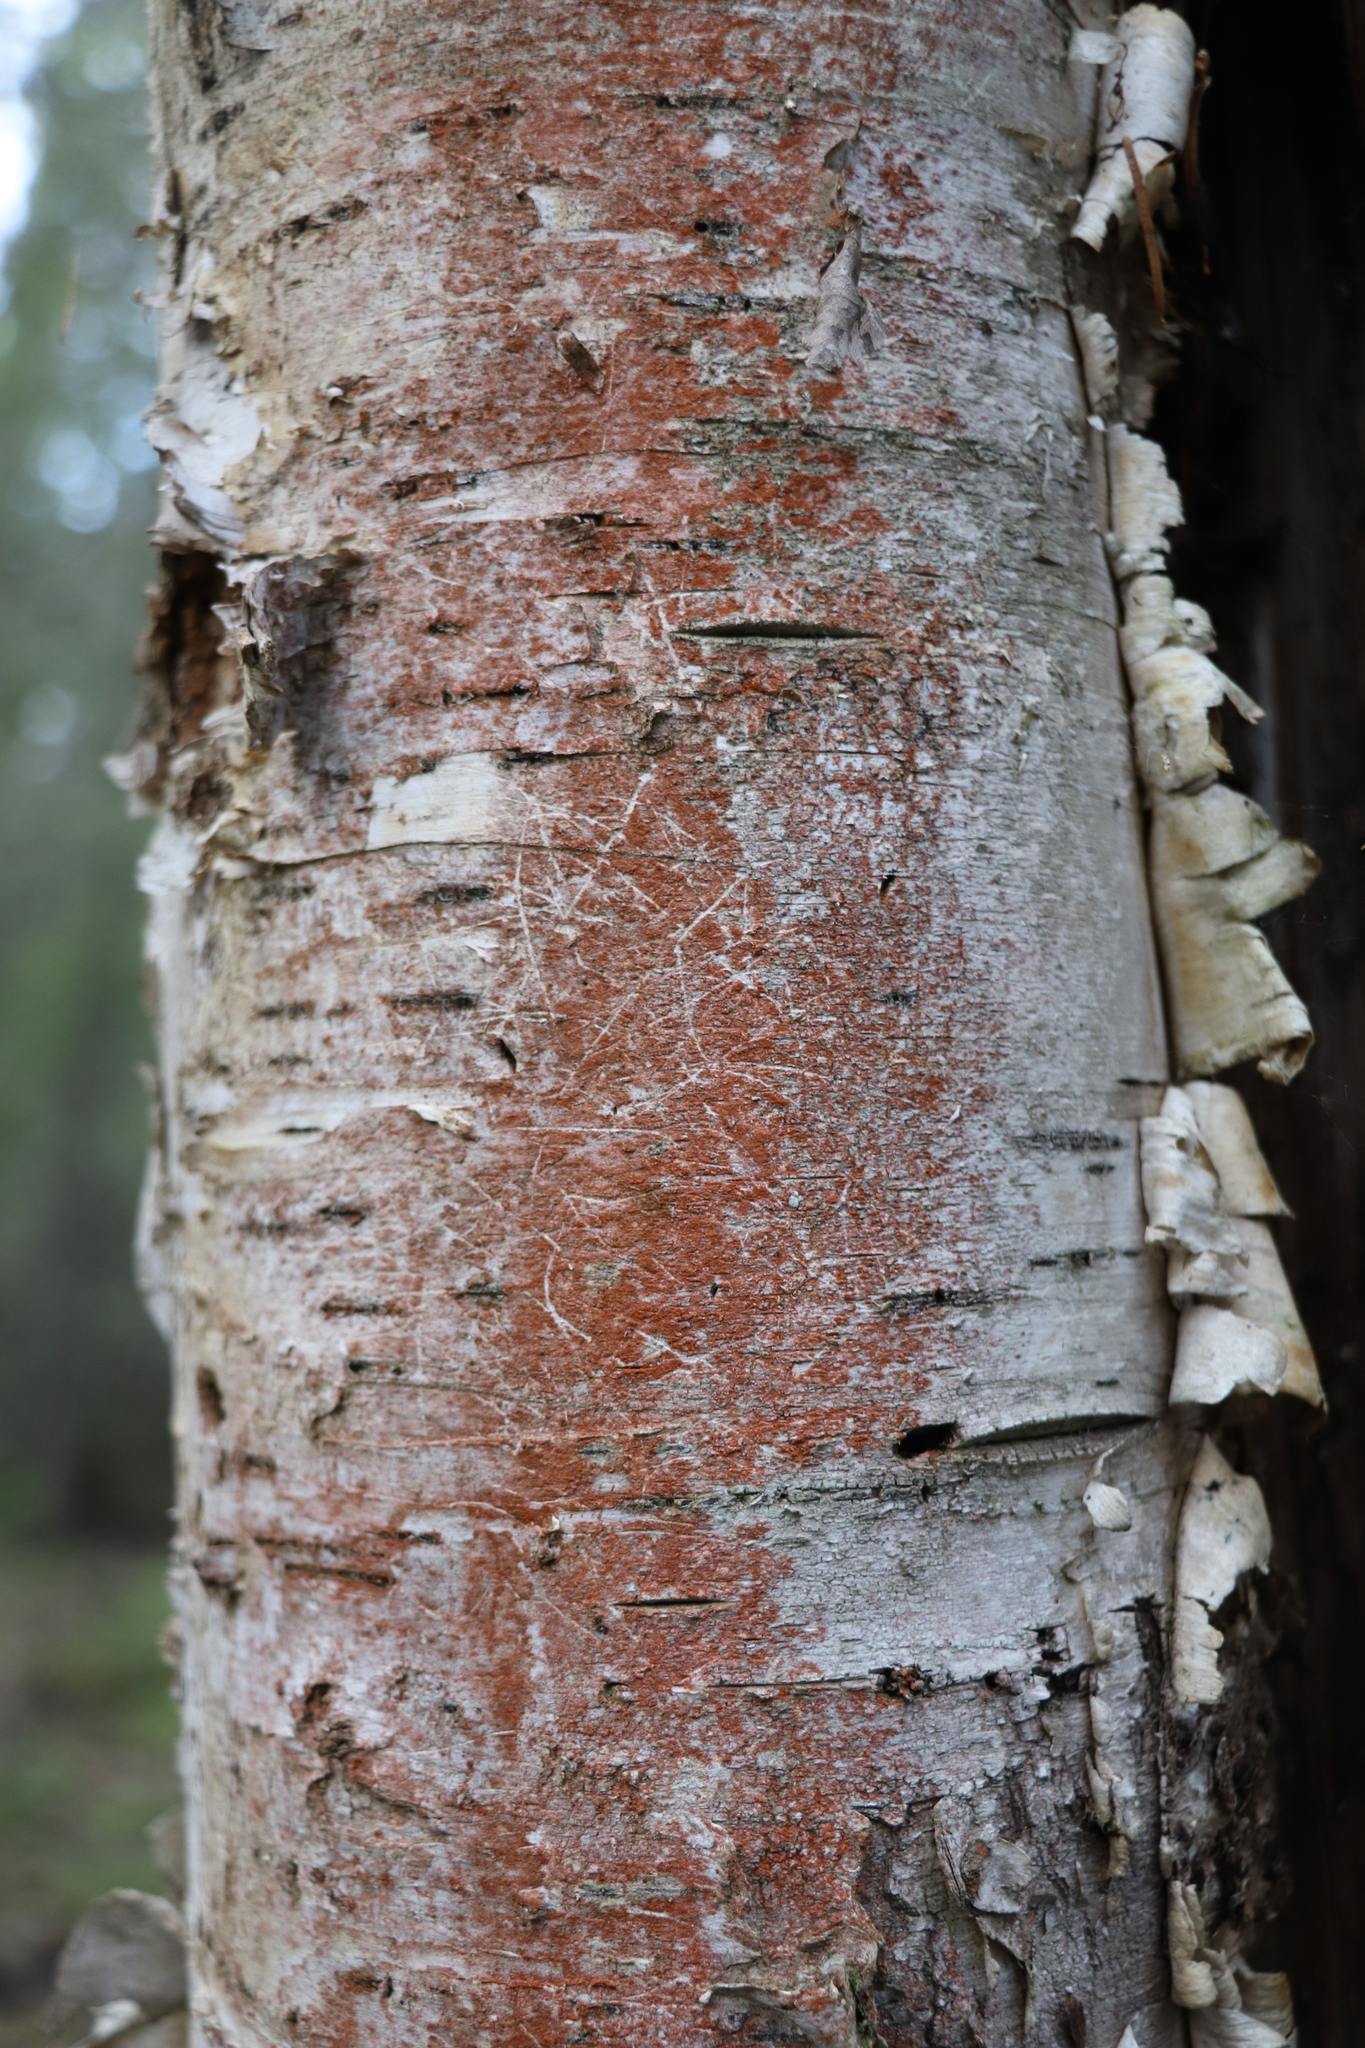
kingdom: Plantae
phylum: Chlorophyta
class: Ulvophyceae
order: Trentepohliales
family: Trentepohliaceae
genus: Trentepohlia
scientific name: Trentepohlia
